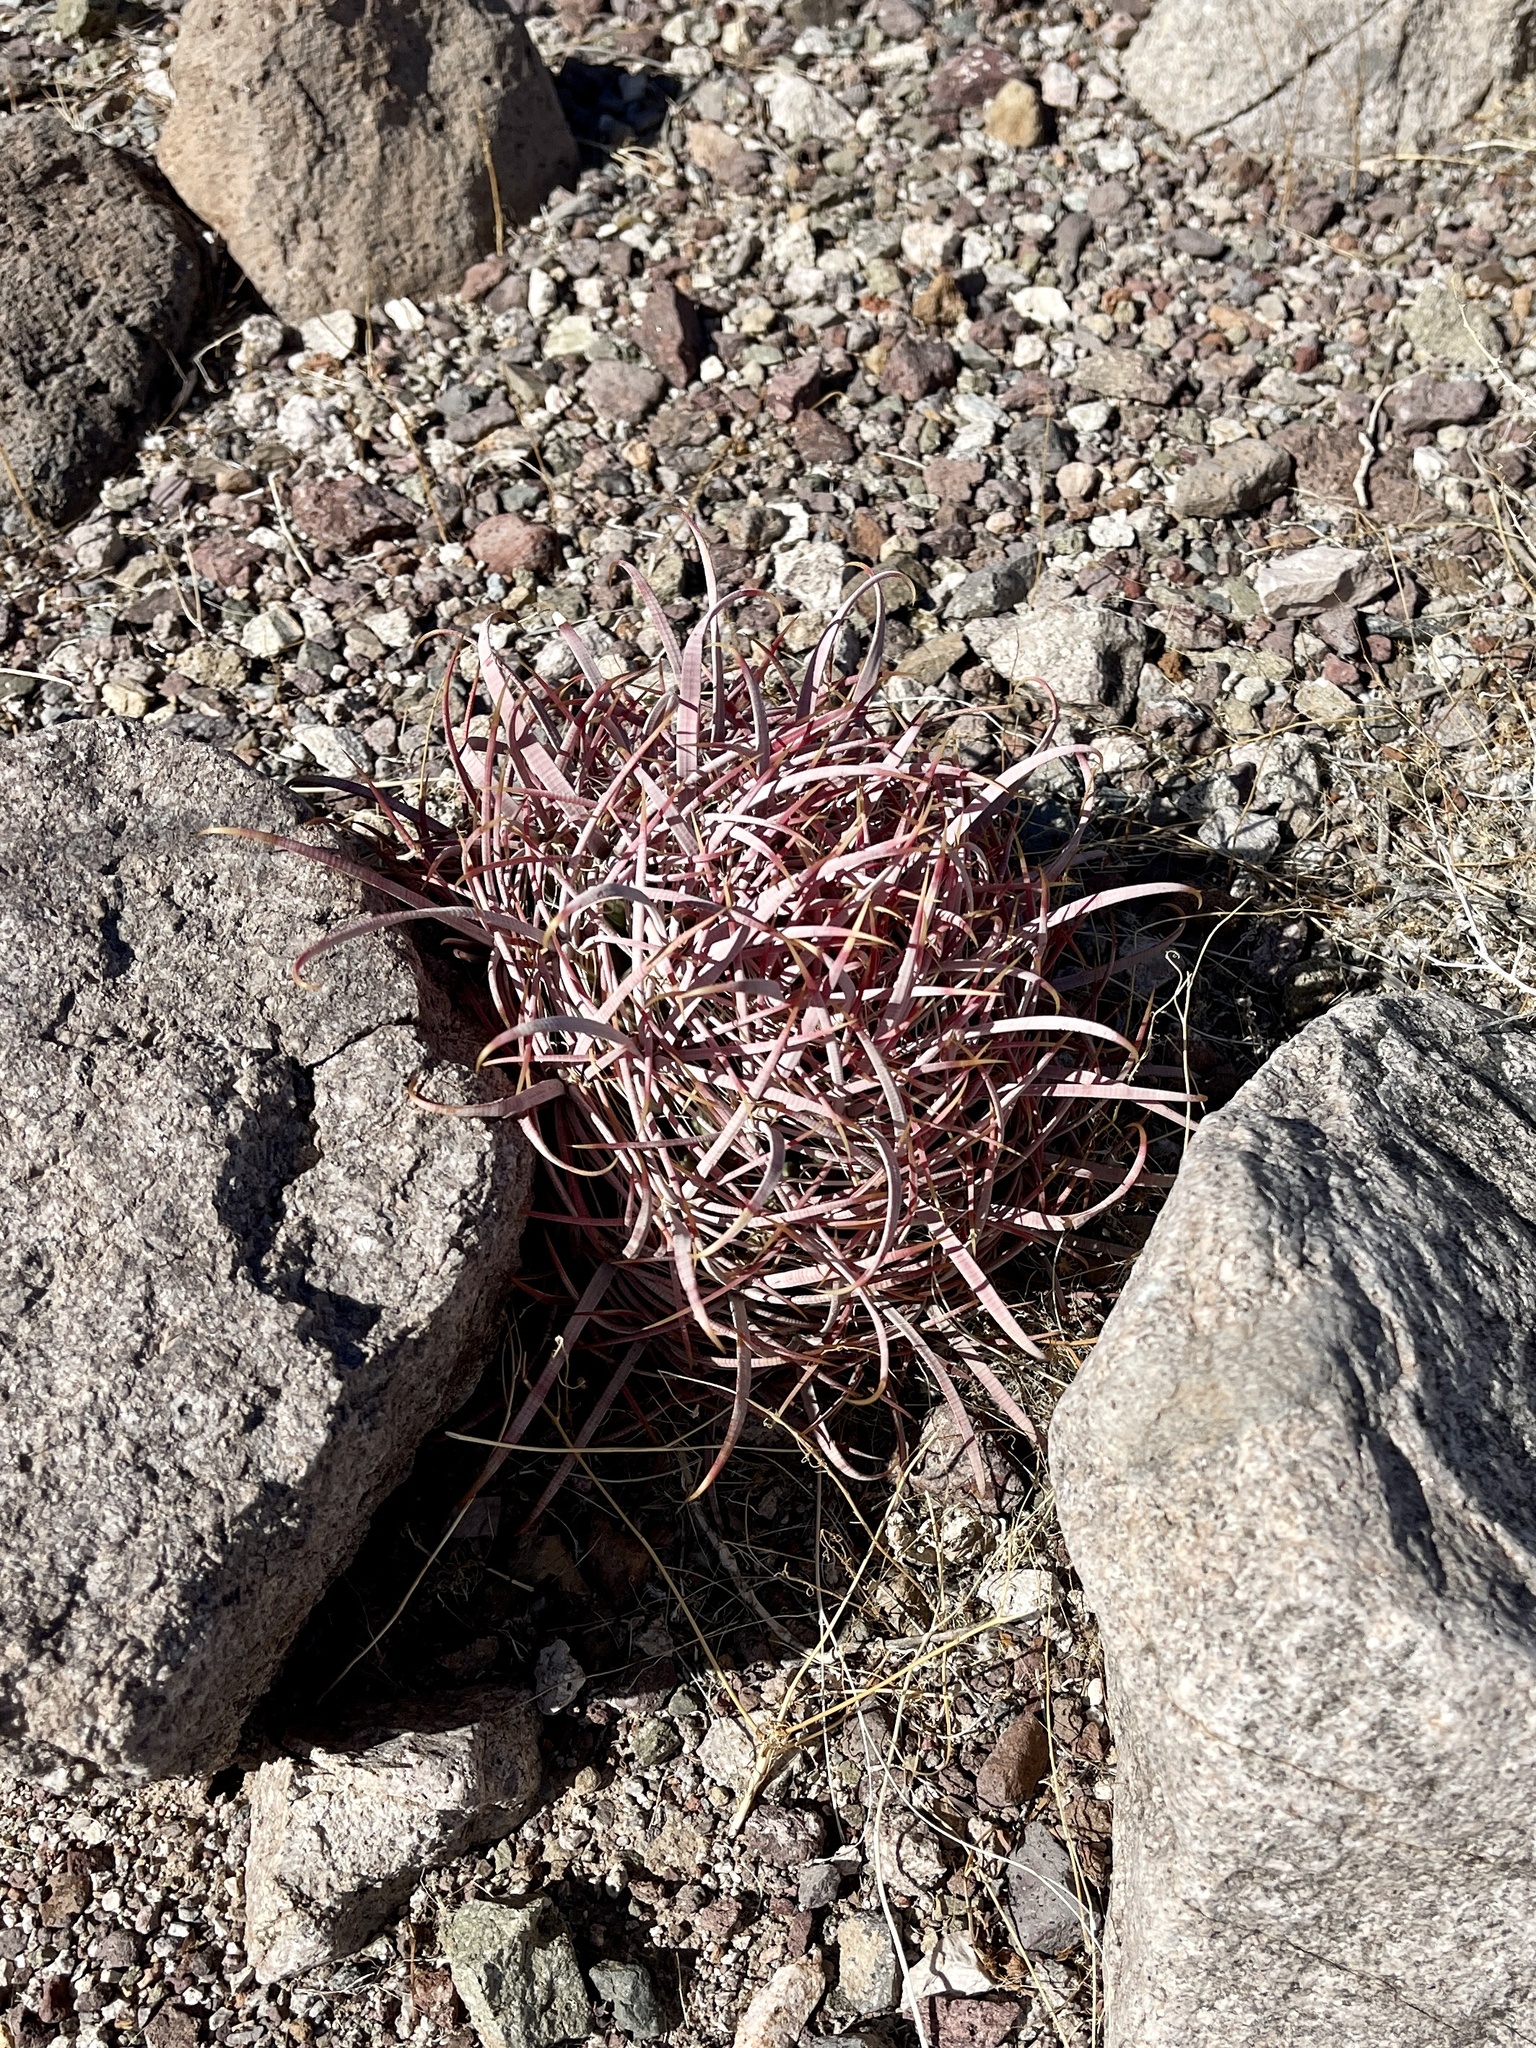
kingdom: Plantae
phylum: Tracheophyta
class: Magnoliopsida
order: Caryophyllales
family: Cactaceae
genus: Ferocactus
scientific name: Ferocactus cylindraceus
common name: California barrel cactus
